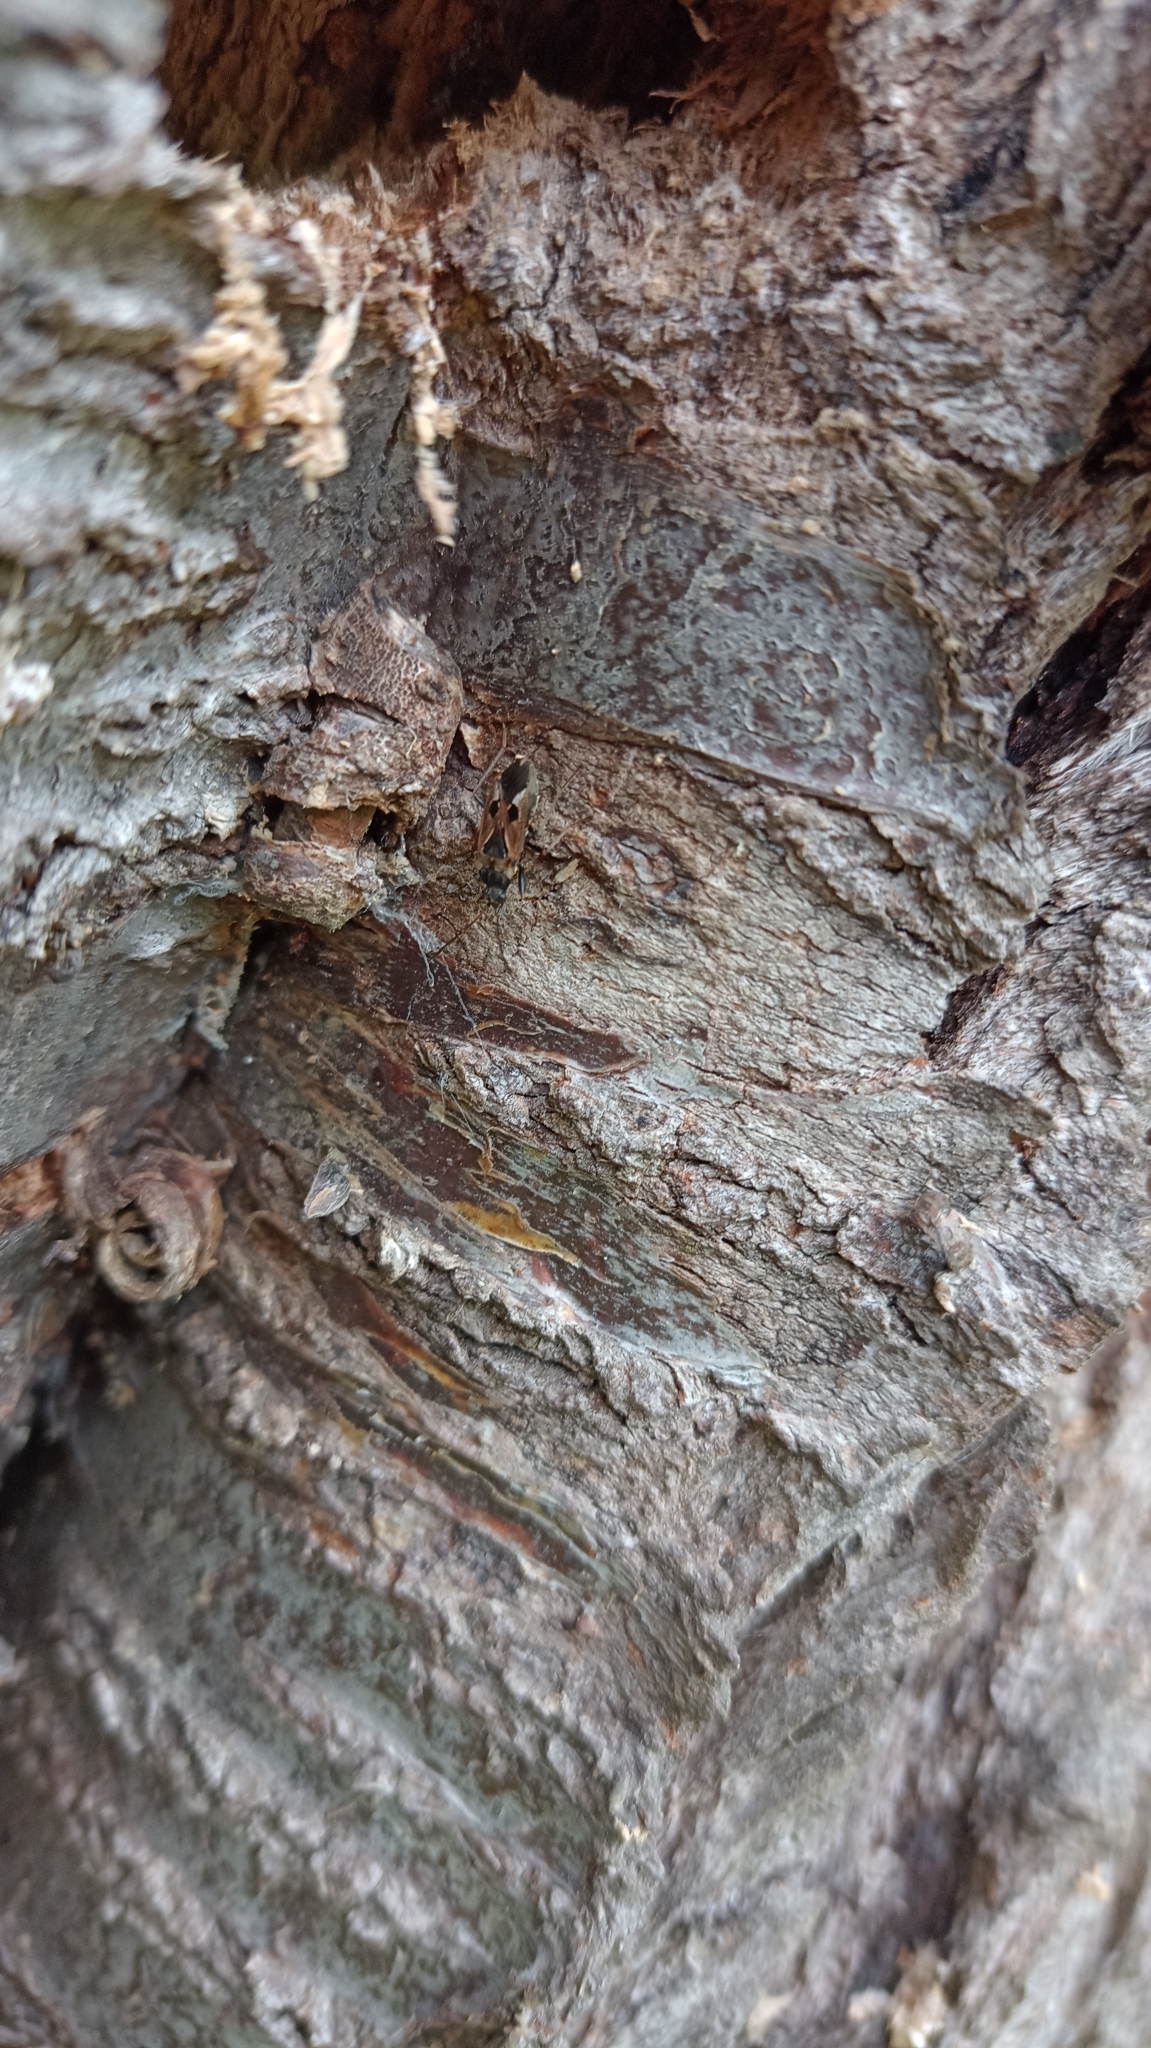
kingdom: Animalia
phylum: Arthropoda
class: Insecta
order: Hemiptera
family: Rhyparochromidae
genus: Rhyparochromus
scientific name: Rhyparochromus vulgaris
